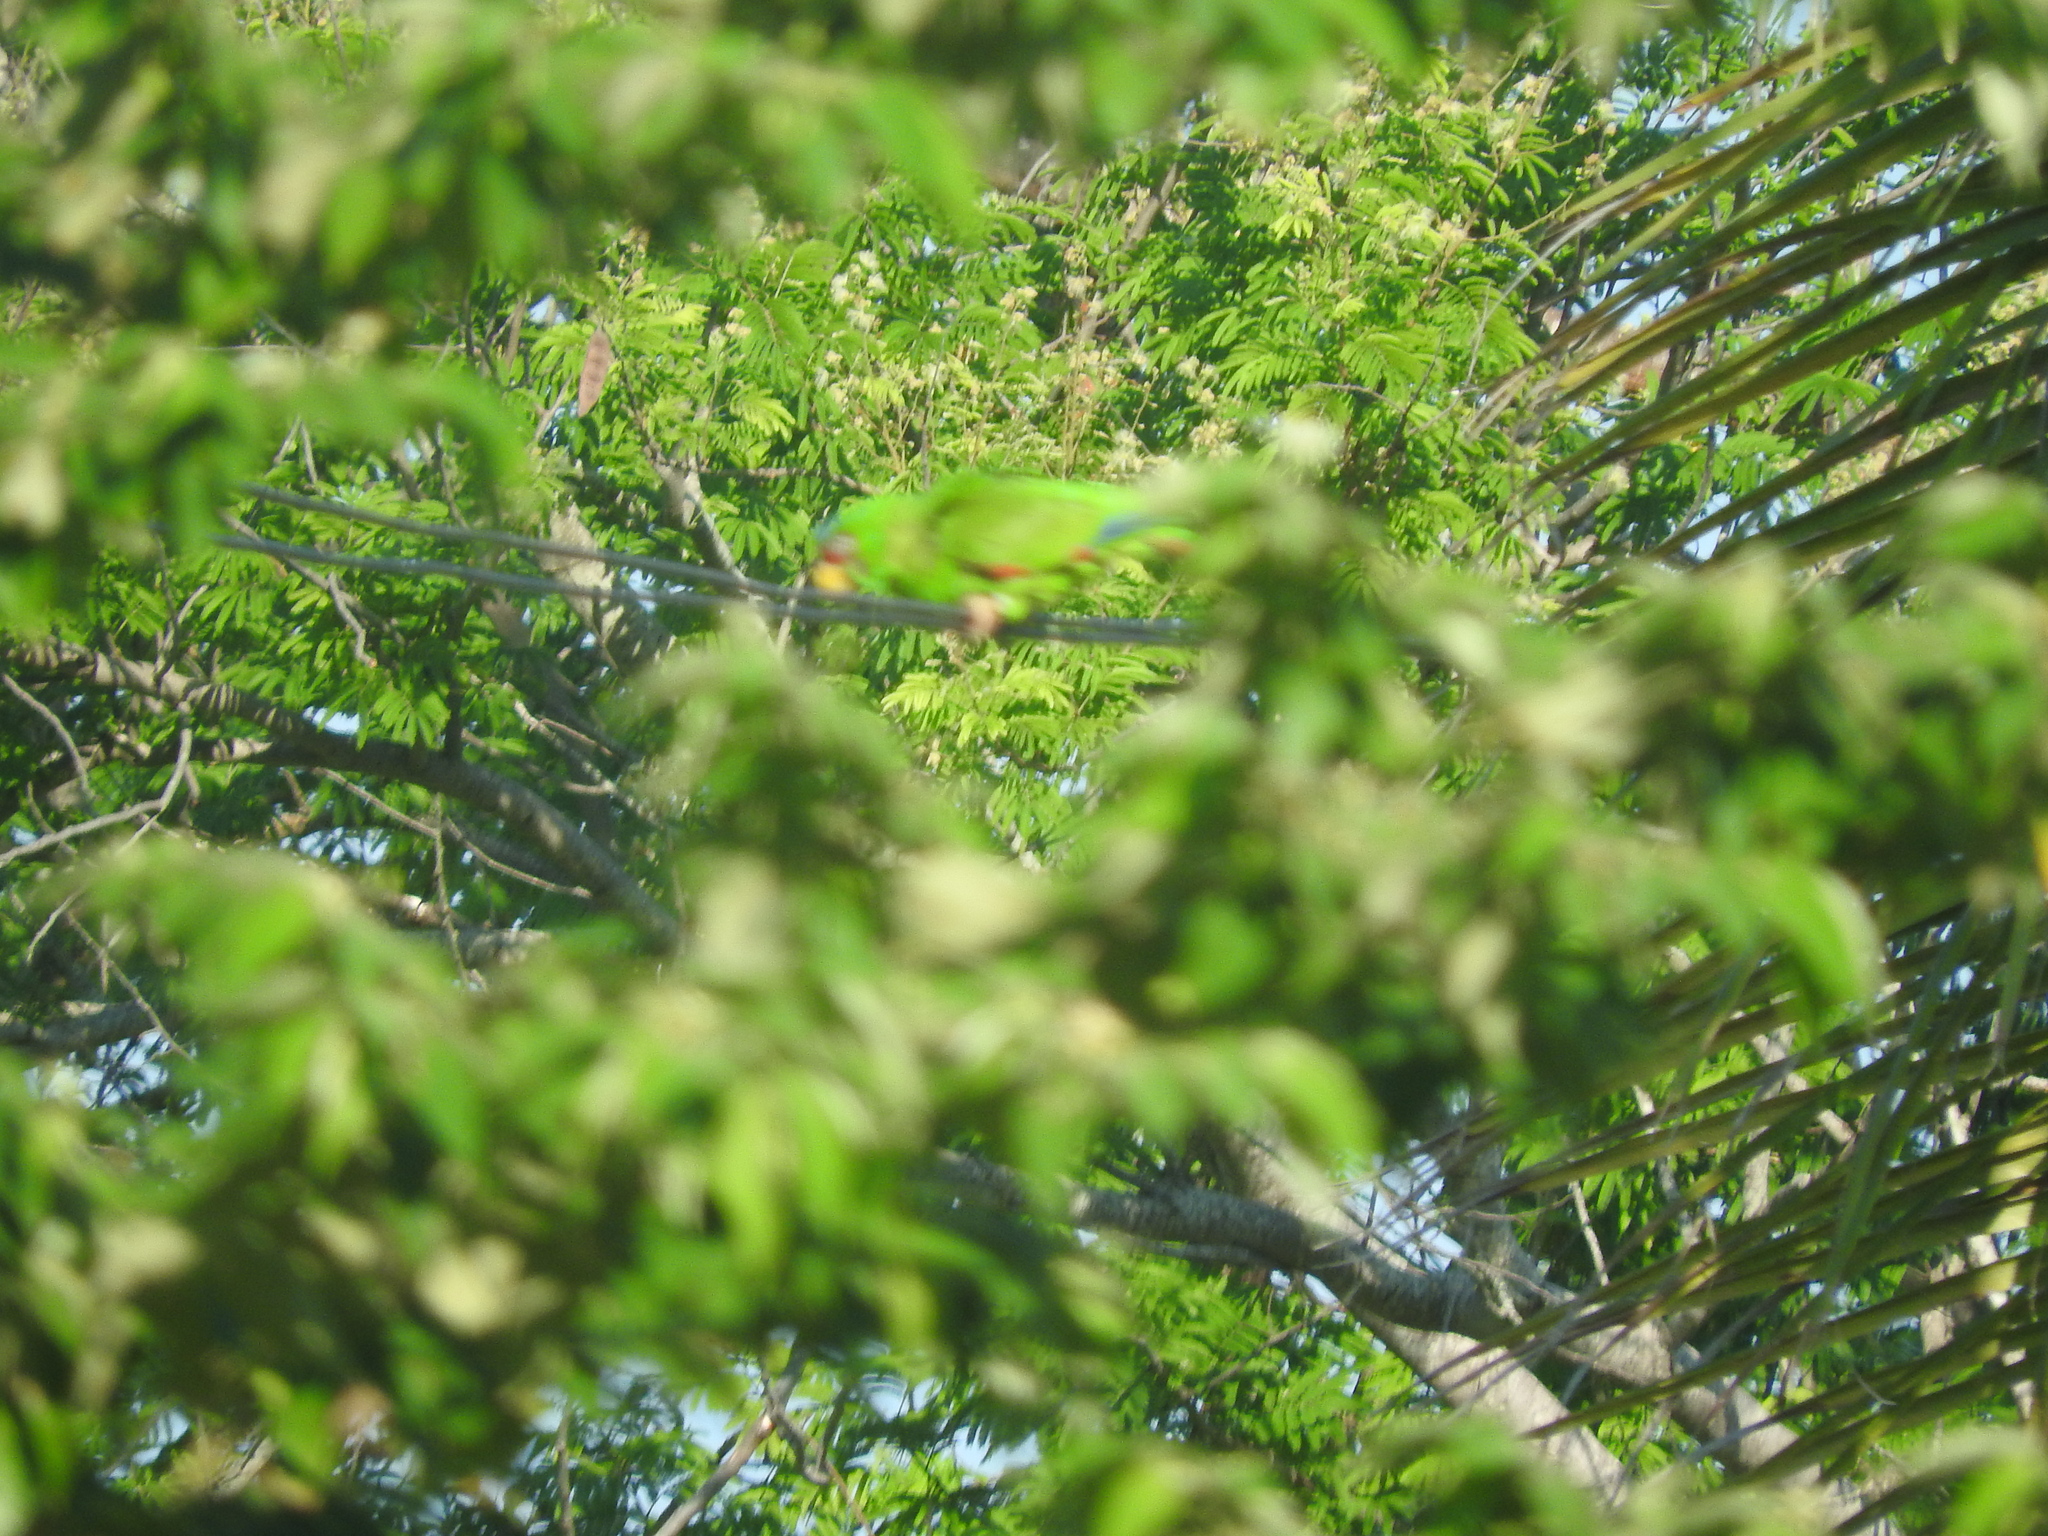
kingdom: Animalia
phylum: Chordata
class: Aves
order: Psittaciformes
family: Psittacidae
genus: Amazona
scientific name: Amazona albifrons
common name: White-fronted amazon
